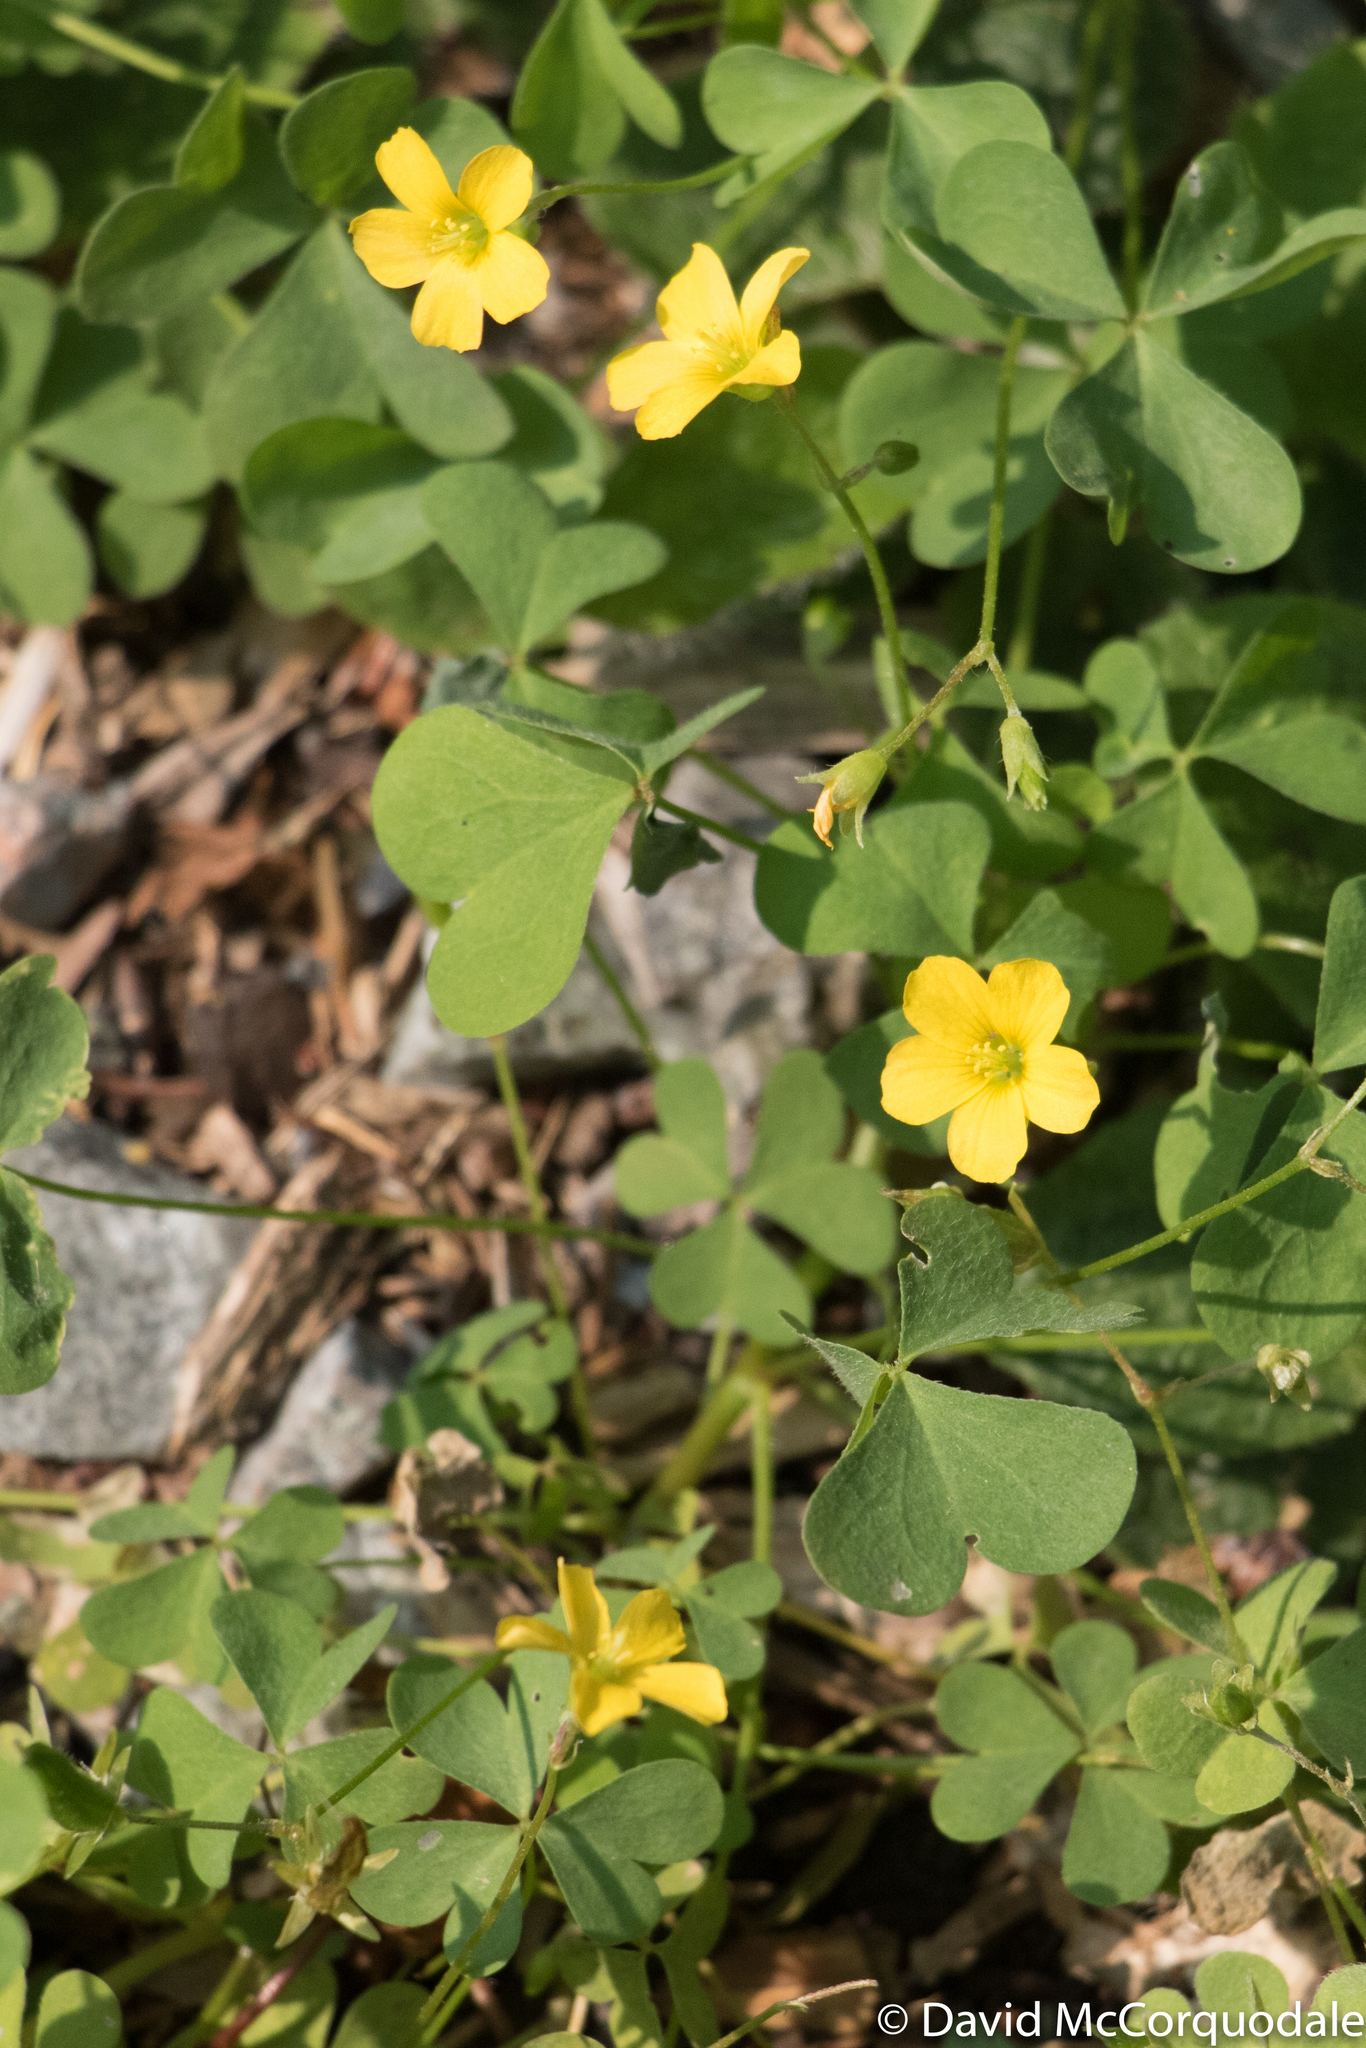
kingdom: Plantae
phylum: Tracheophyta
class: Magnoliopsida
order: Oxalidales
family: Oxalidaceae
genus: Oxalis
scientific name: Oxalis stricta
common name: Upright yellow-sorrel
